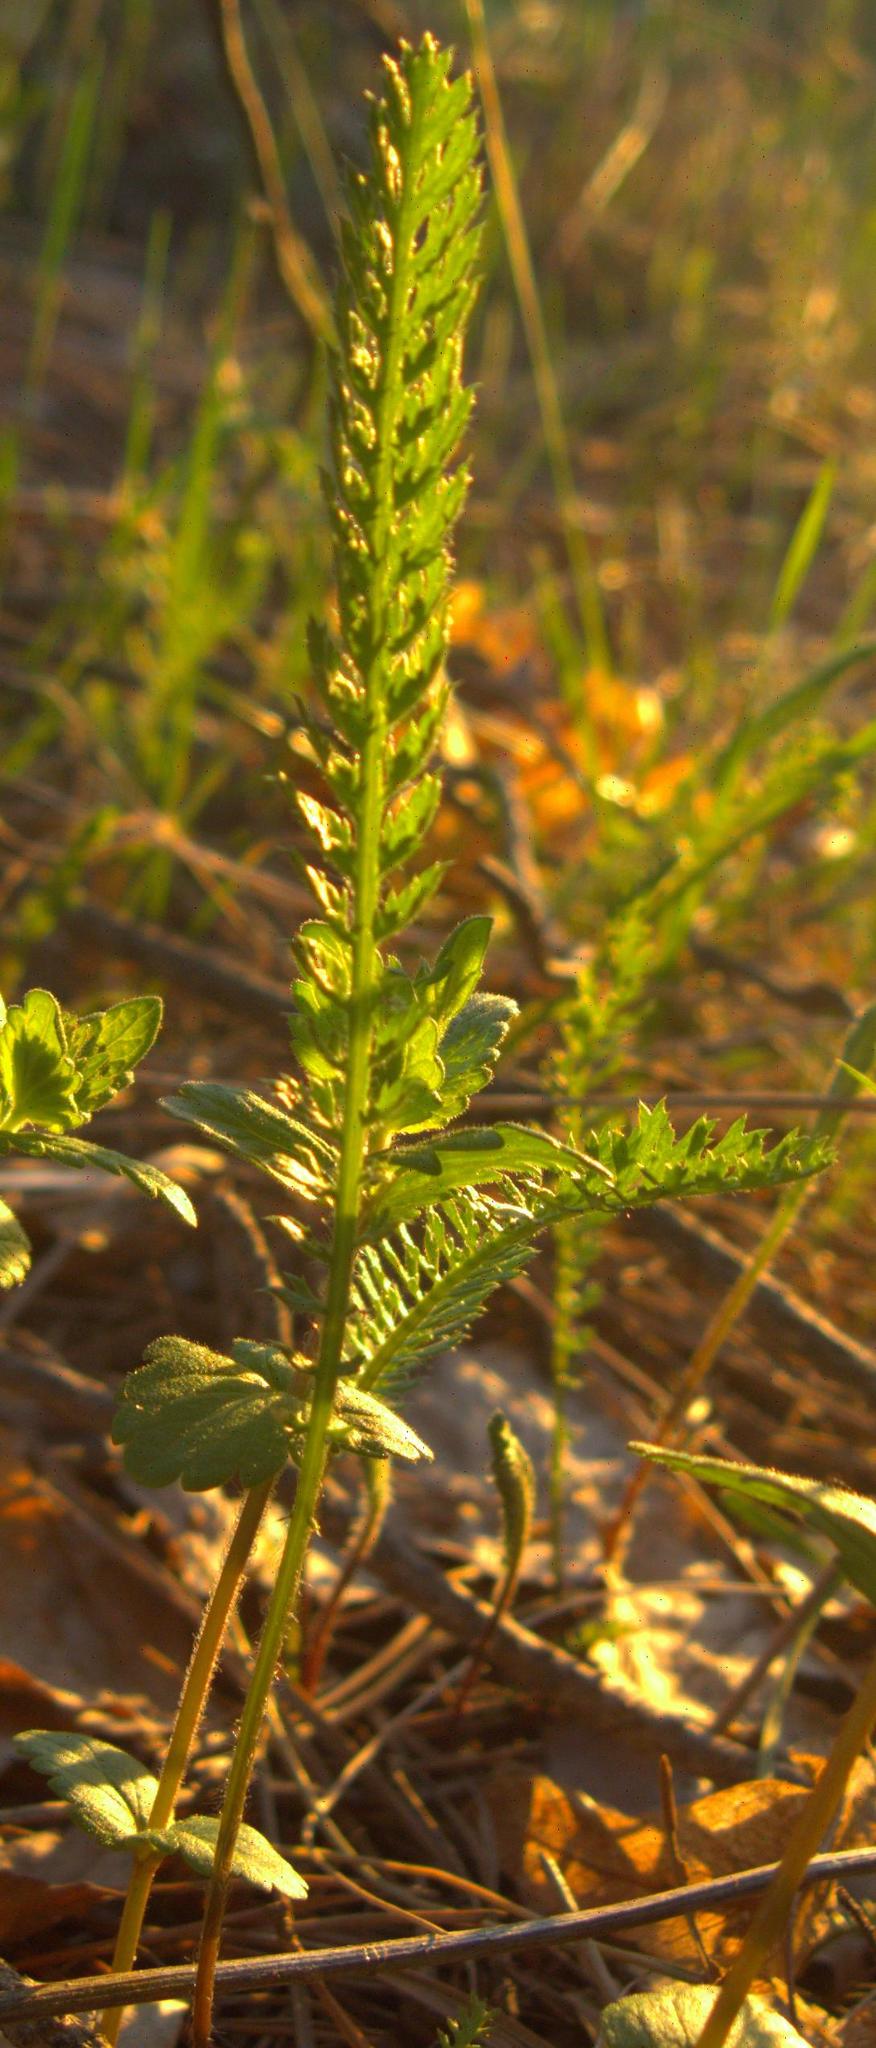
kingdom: Plantae
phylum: Tracheophyta
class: Magnoliopsida
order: Asterales
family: Asteraceae
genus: Achillea
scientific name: Achillea millefolium
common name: Yarrow
